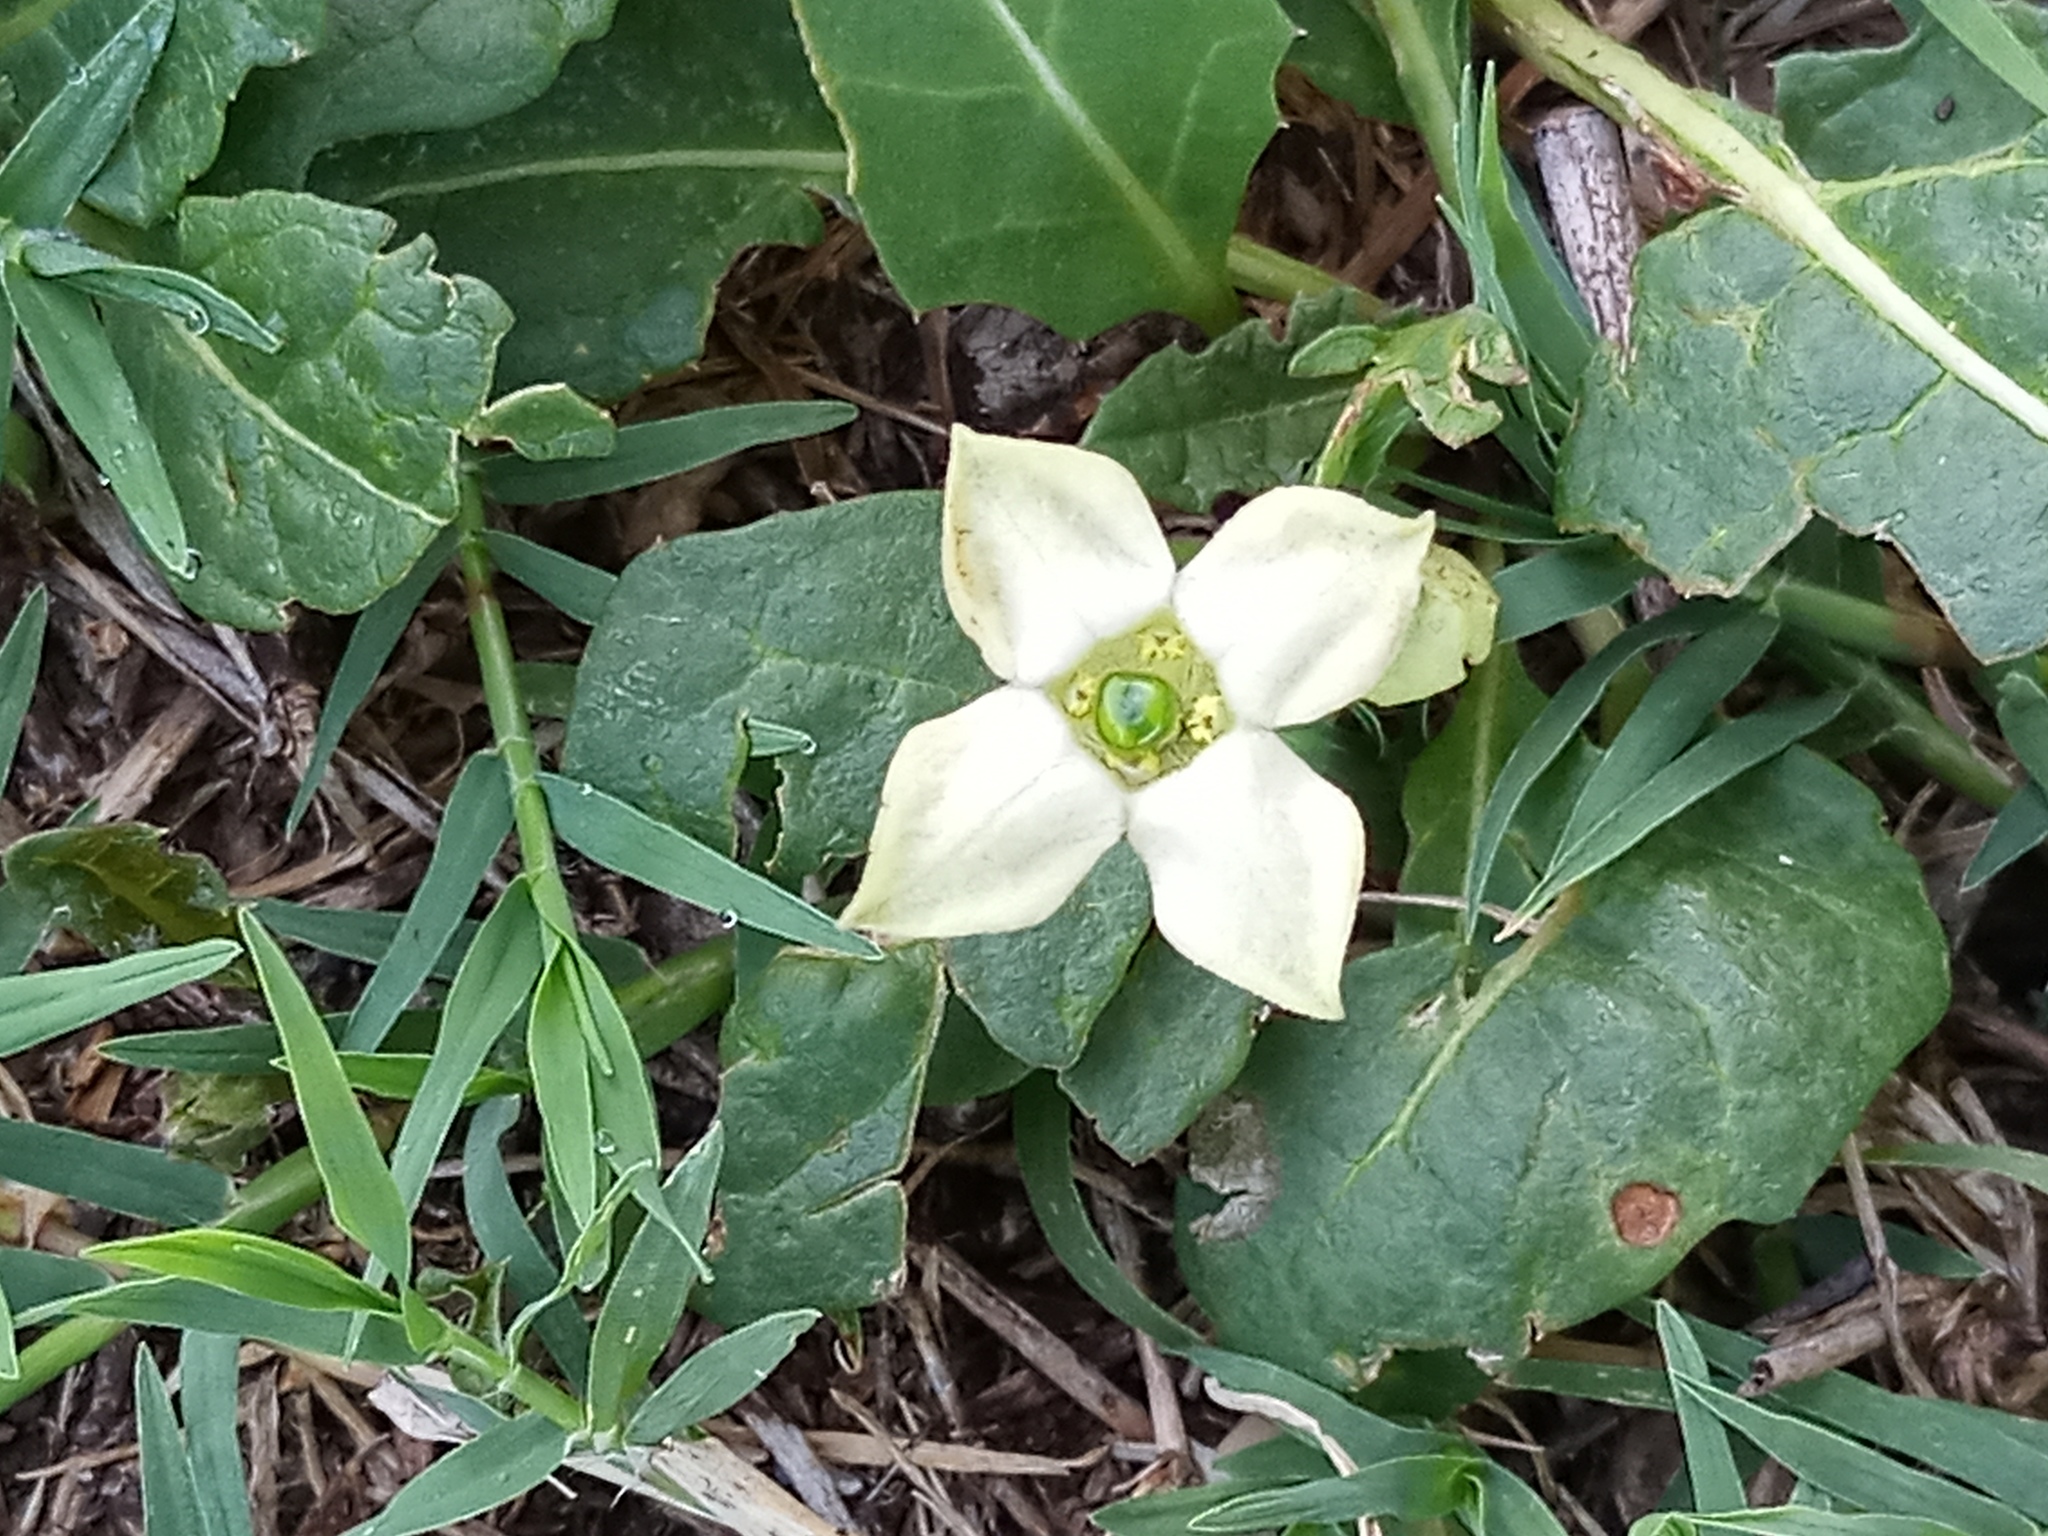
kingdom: Plantae
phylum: Tracheophyta
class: Magnoliopsida
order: Solanales
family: Solanaceae
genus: Jaborosa
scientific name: Jaborosa runcinata
